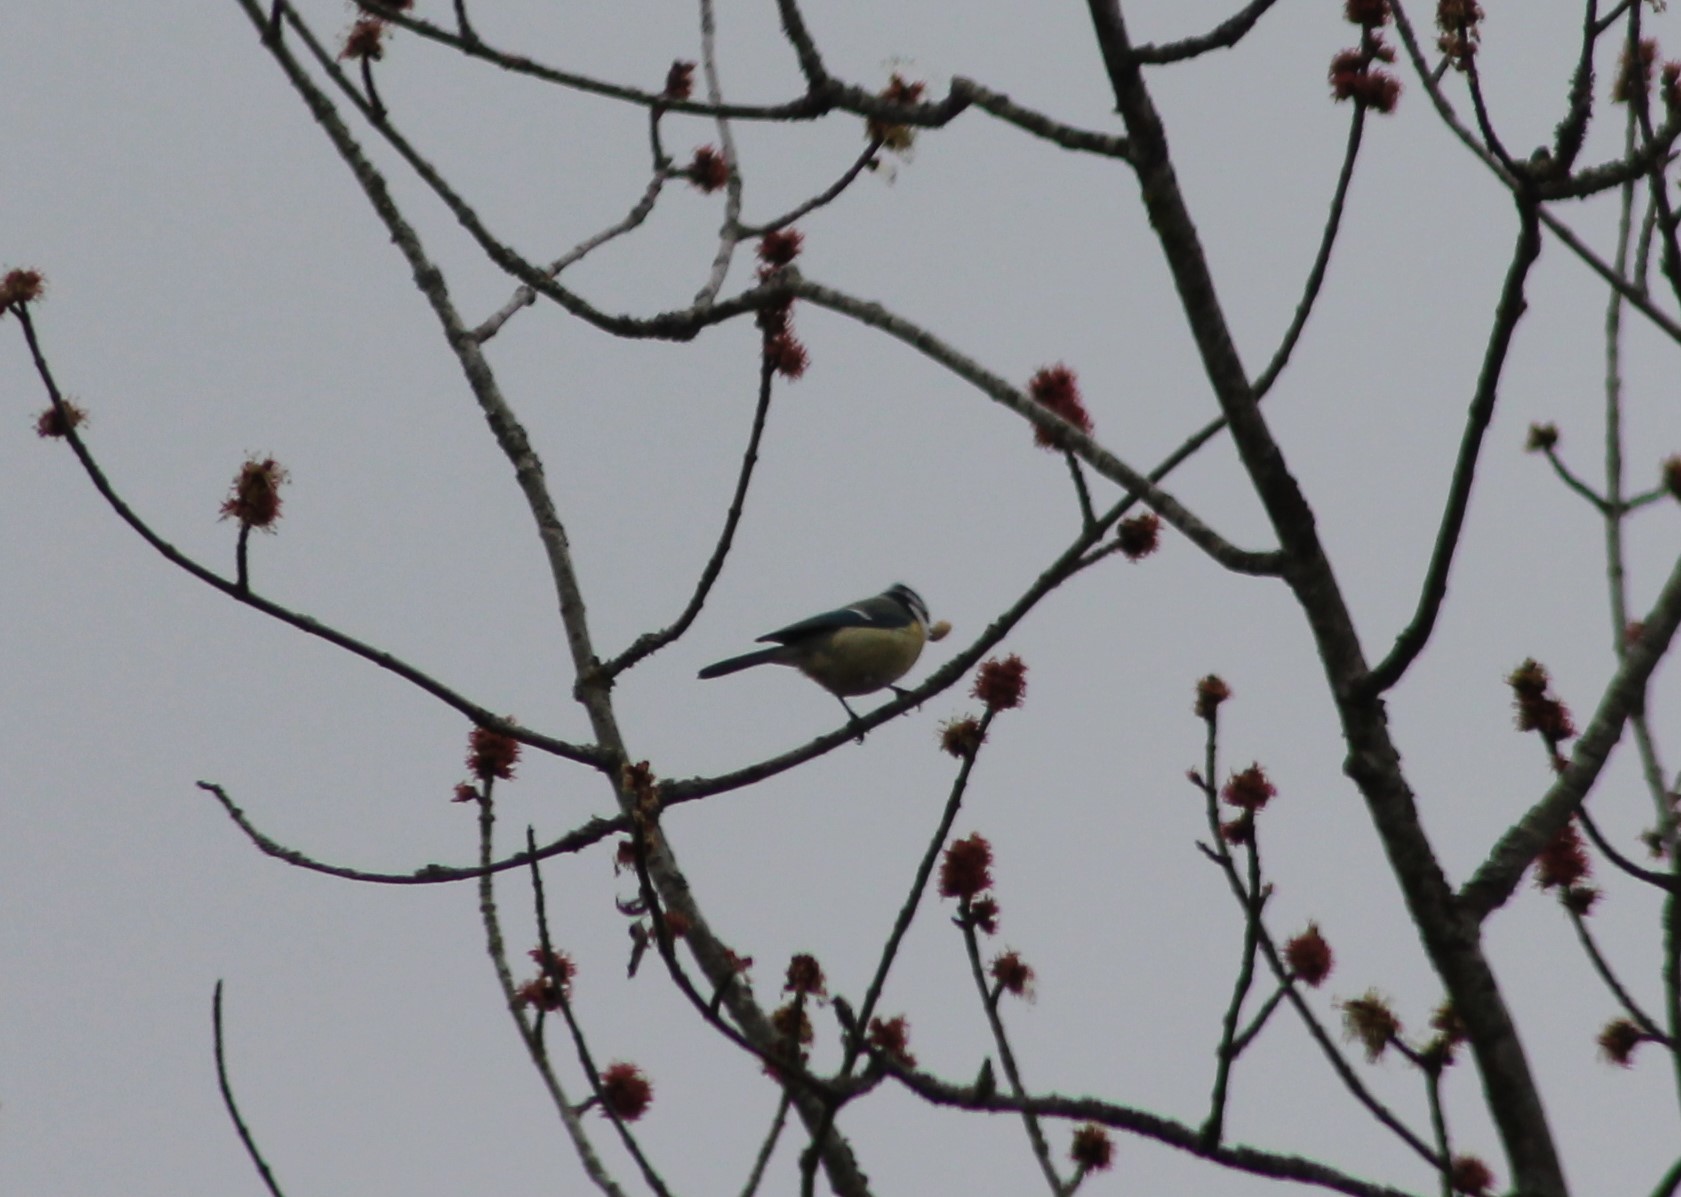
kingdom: Animalia
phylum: Chordata
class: Aves
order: Passeriformes
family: Paridae
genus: Cyanistes
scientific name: Cyanistes caeruleus
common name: Eurasian blue tit
